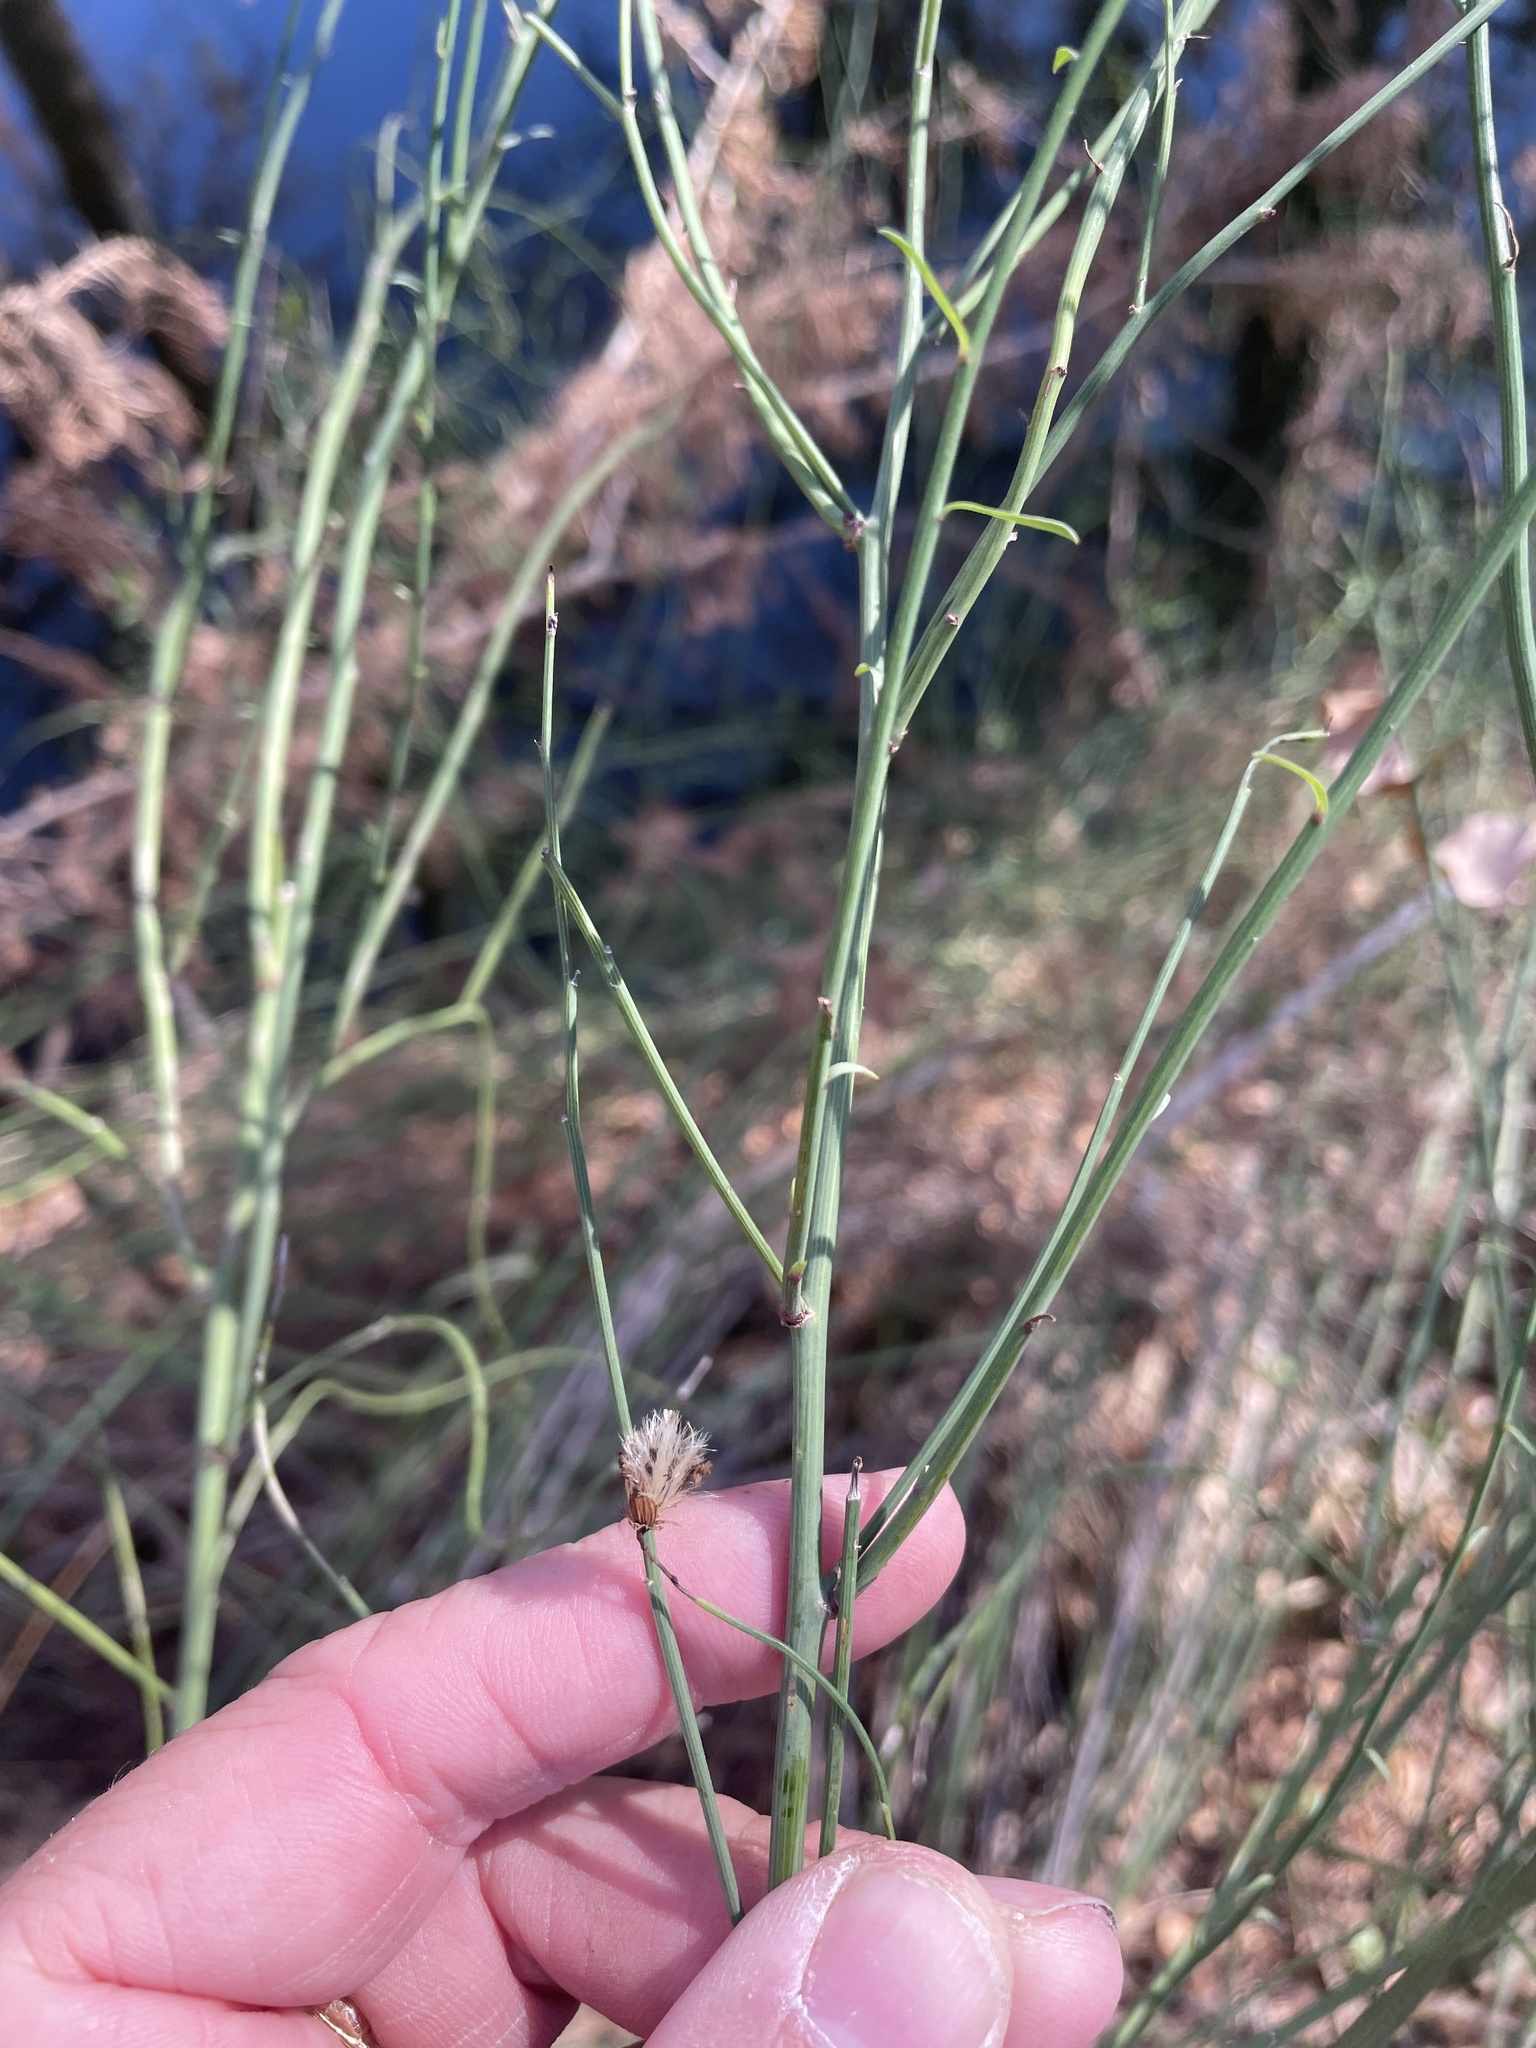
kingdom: Plantae
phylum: Tracheophyta
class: Magnoliopsida
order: Asterales
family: Asteraceae
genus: Chloracantha
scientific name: Chloracantha spinosa
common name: Mexican devilweed
